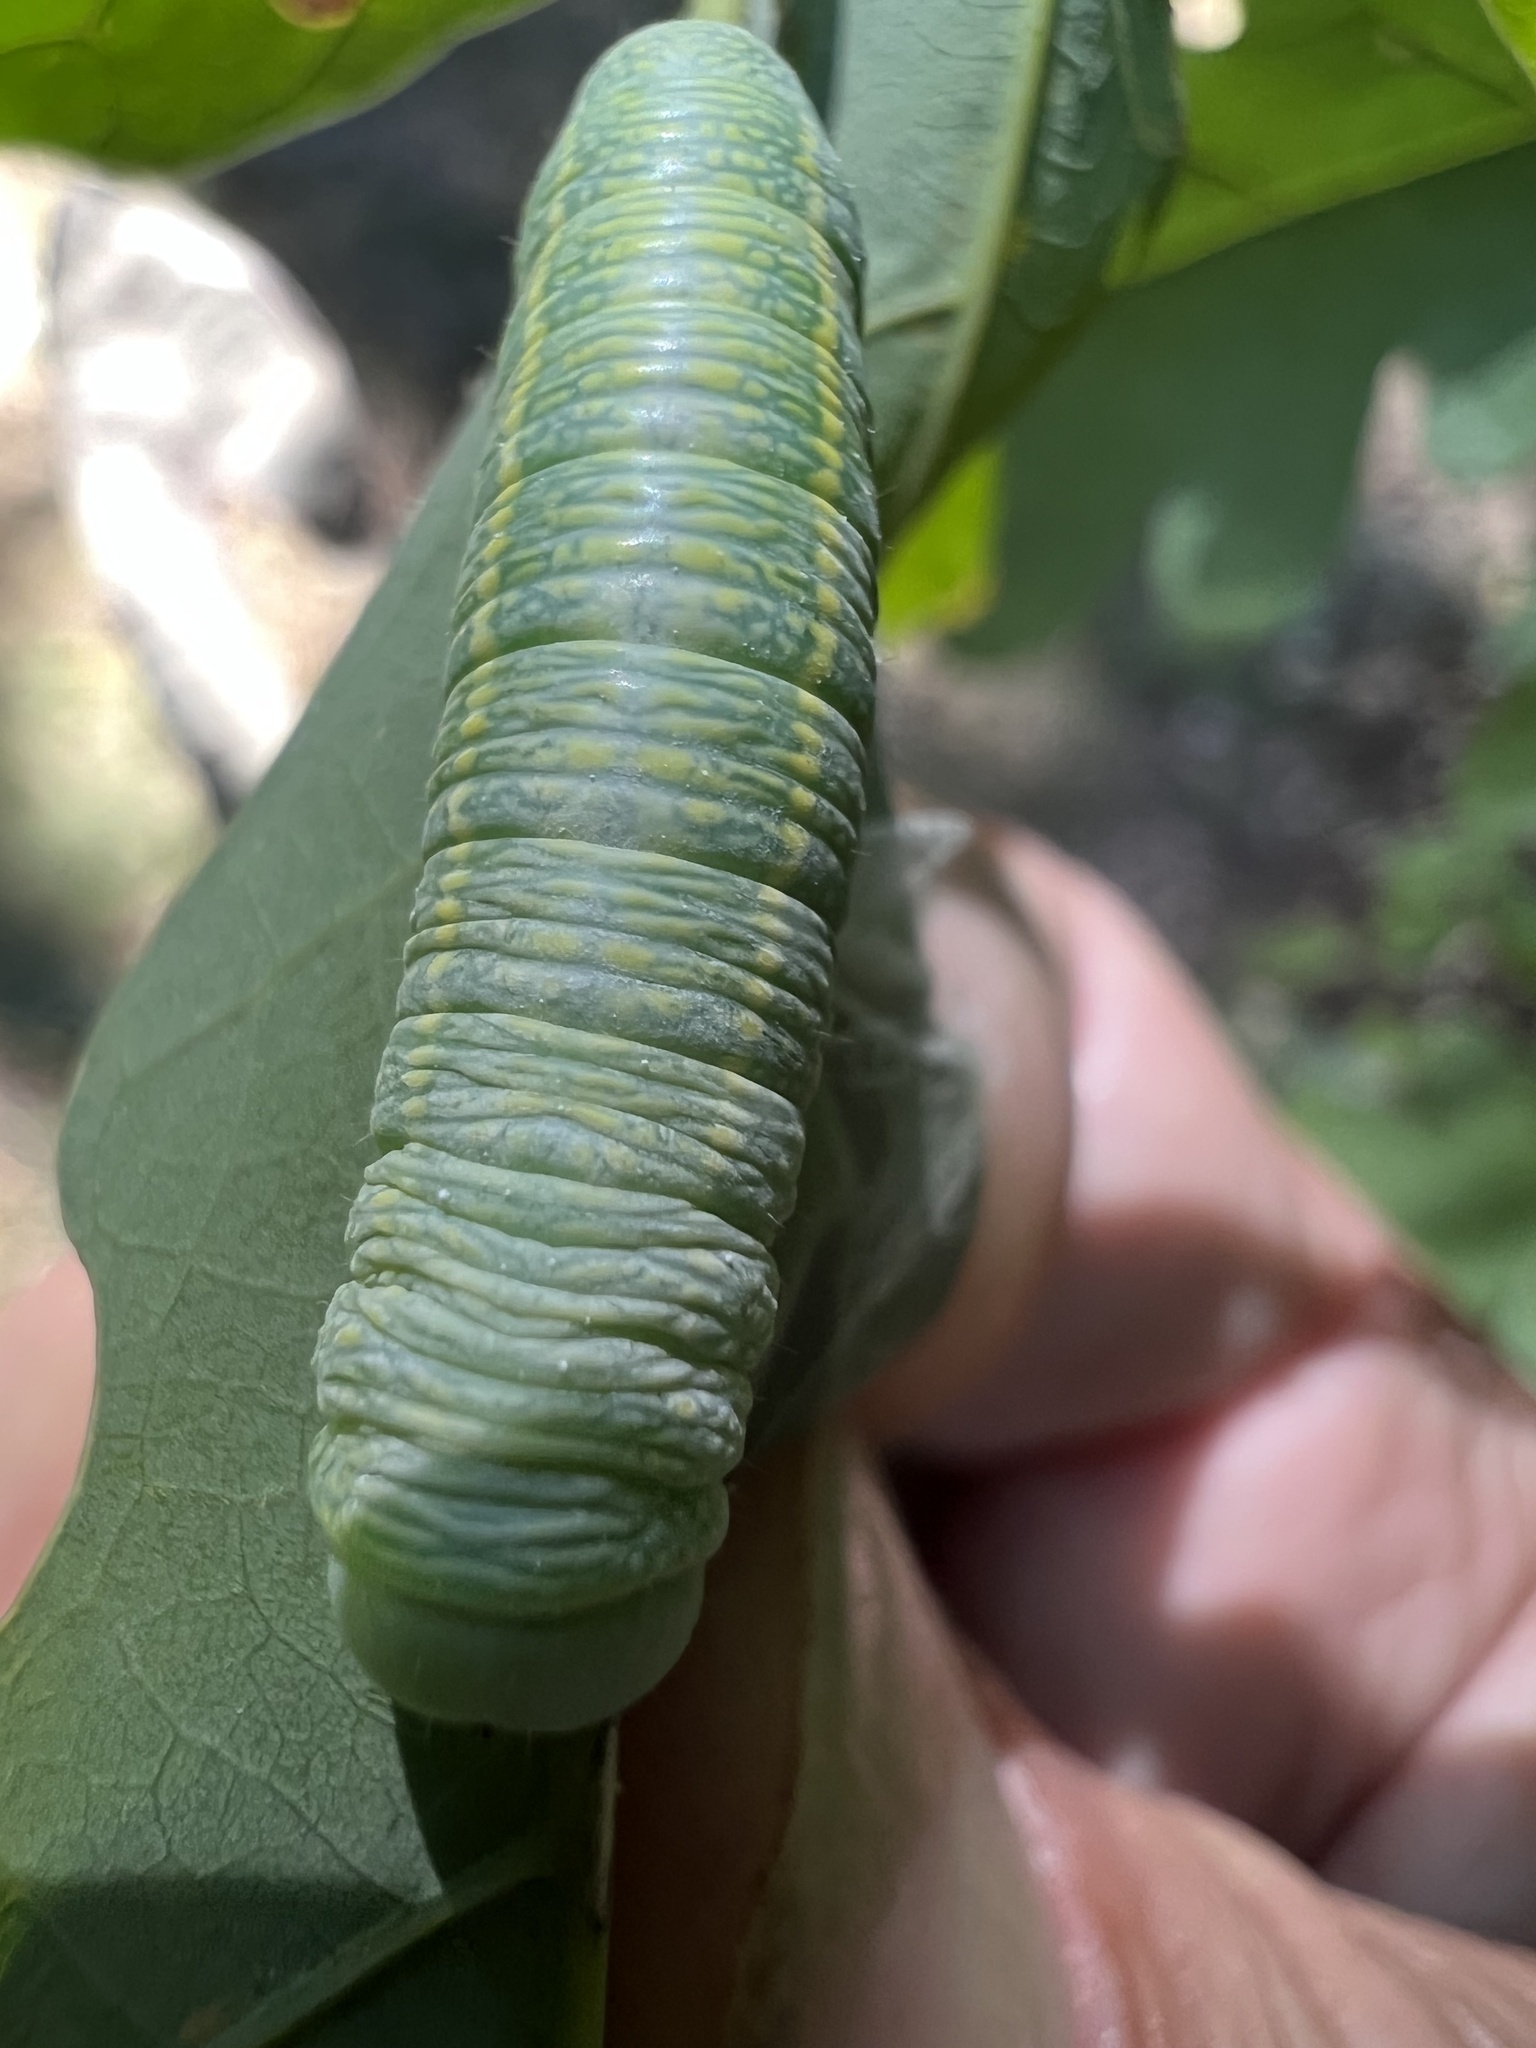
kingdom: Animalia
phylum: Arthropoda
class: Insecta
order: Lepidoptera
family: Notodontidae
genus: Nadata
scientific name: Nadata gibbosa
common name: White-dotted prominent
